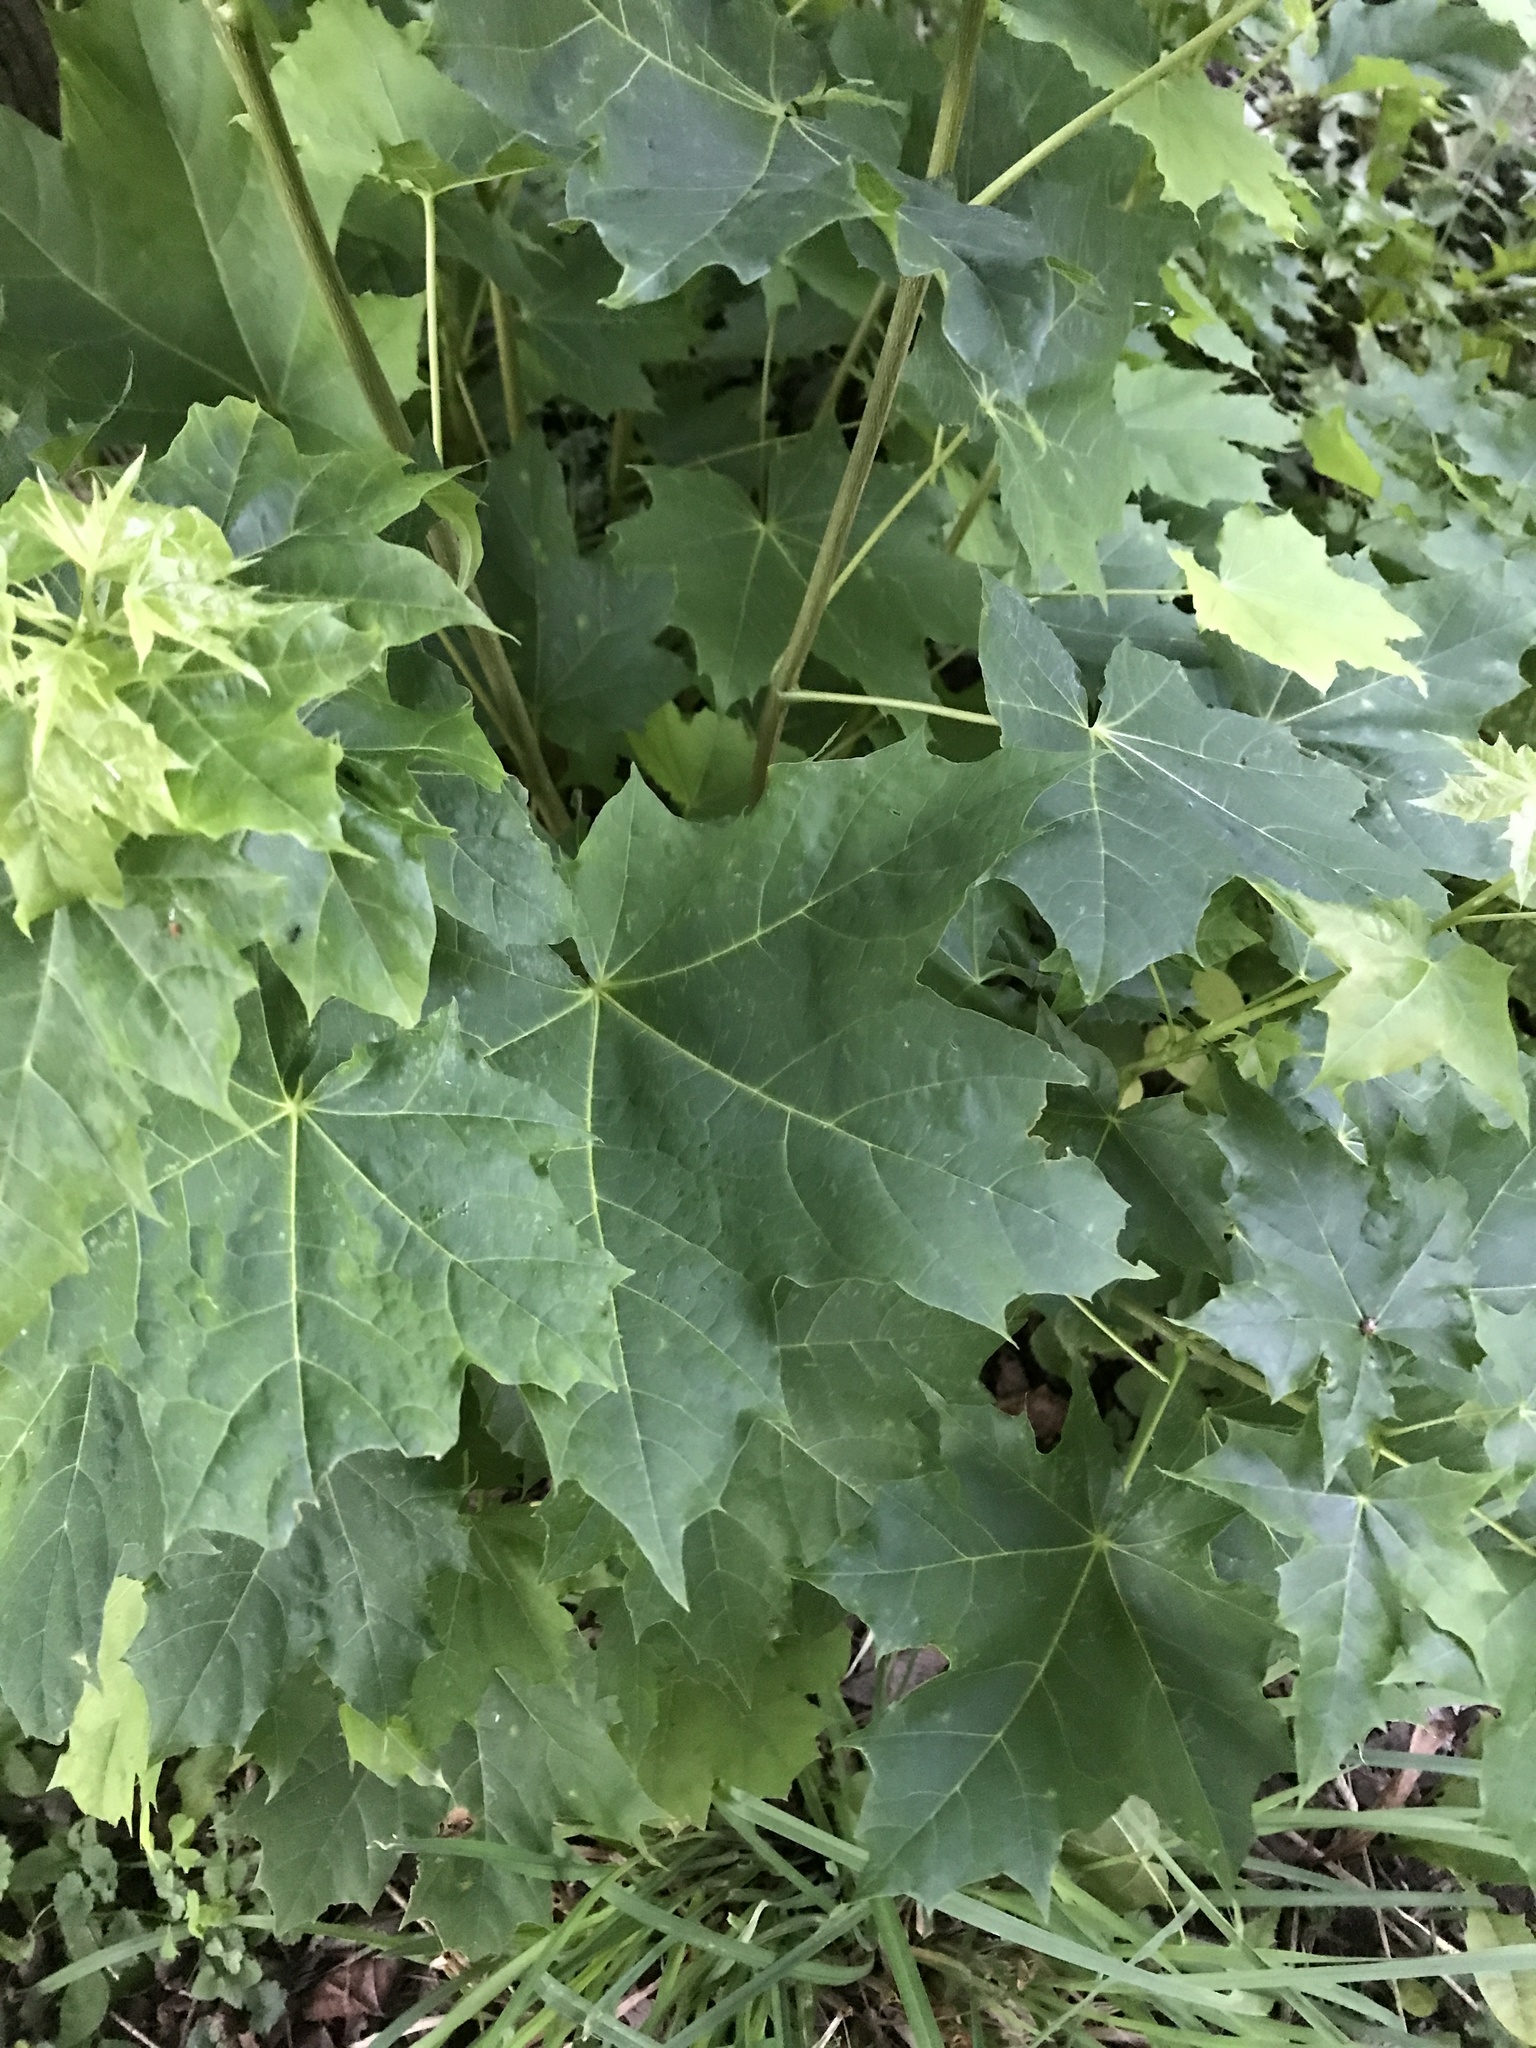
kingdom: Plantae
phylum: Tracheophyta
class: Magnoliopsida
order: Sapindales
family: Sapindaceae
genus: Acer
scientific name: Acer platanoides
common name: Norway maple
